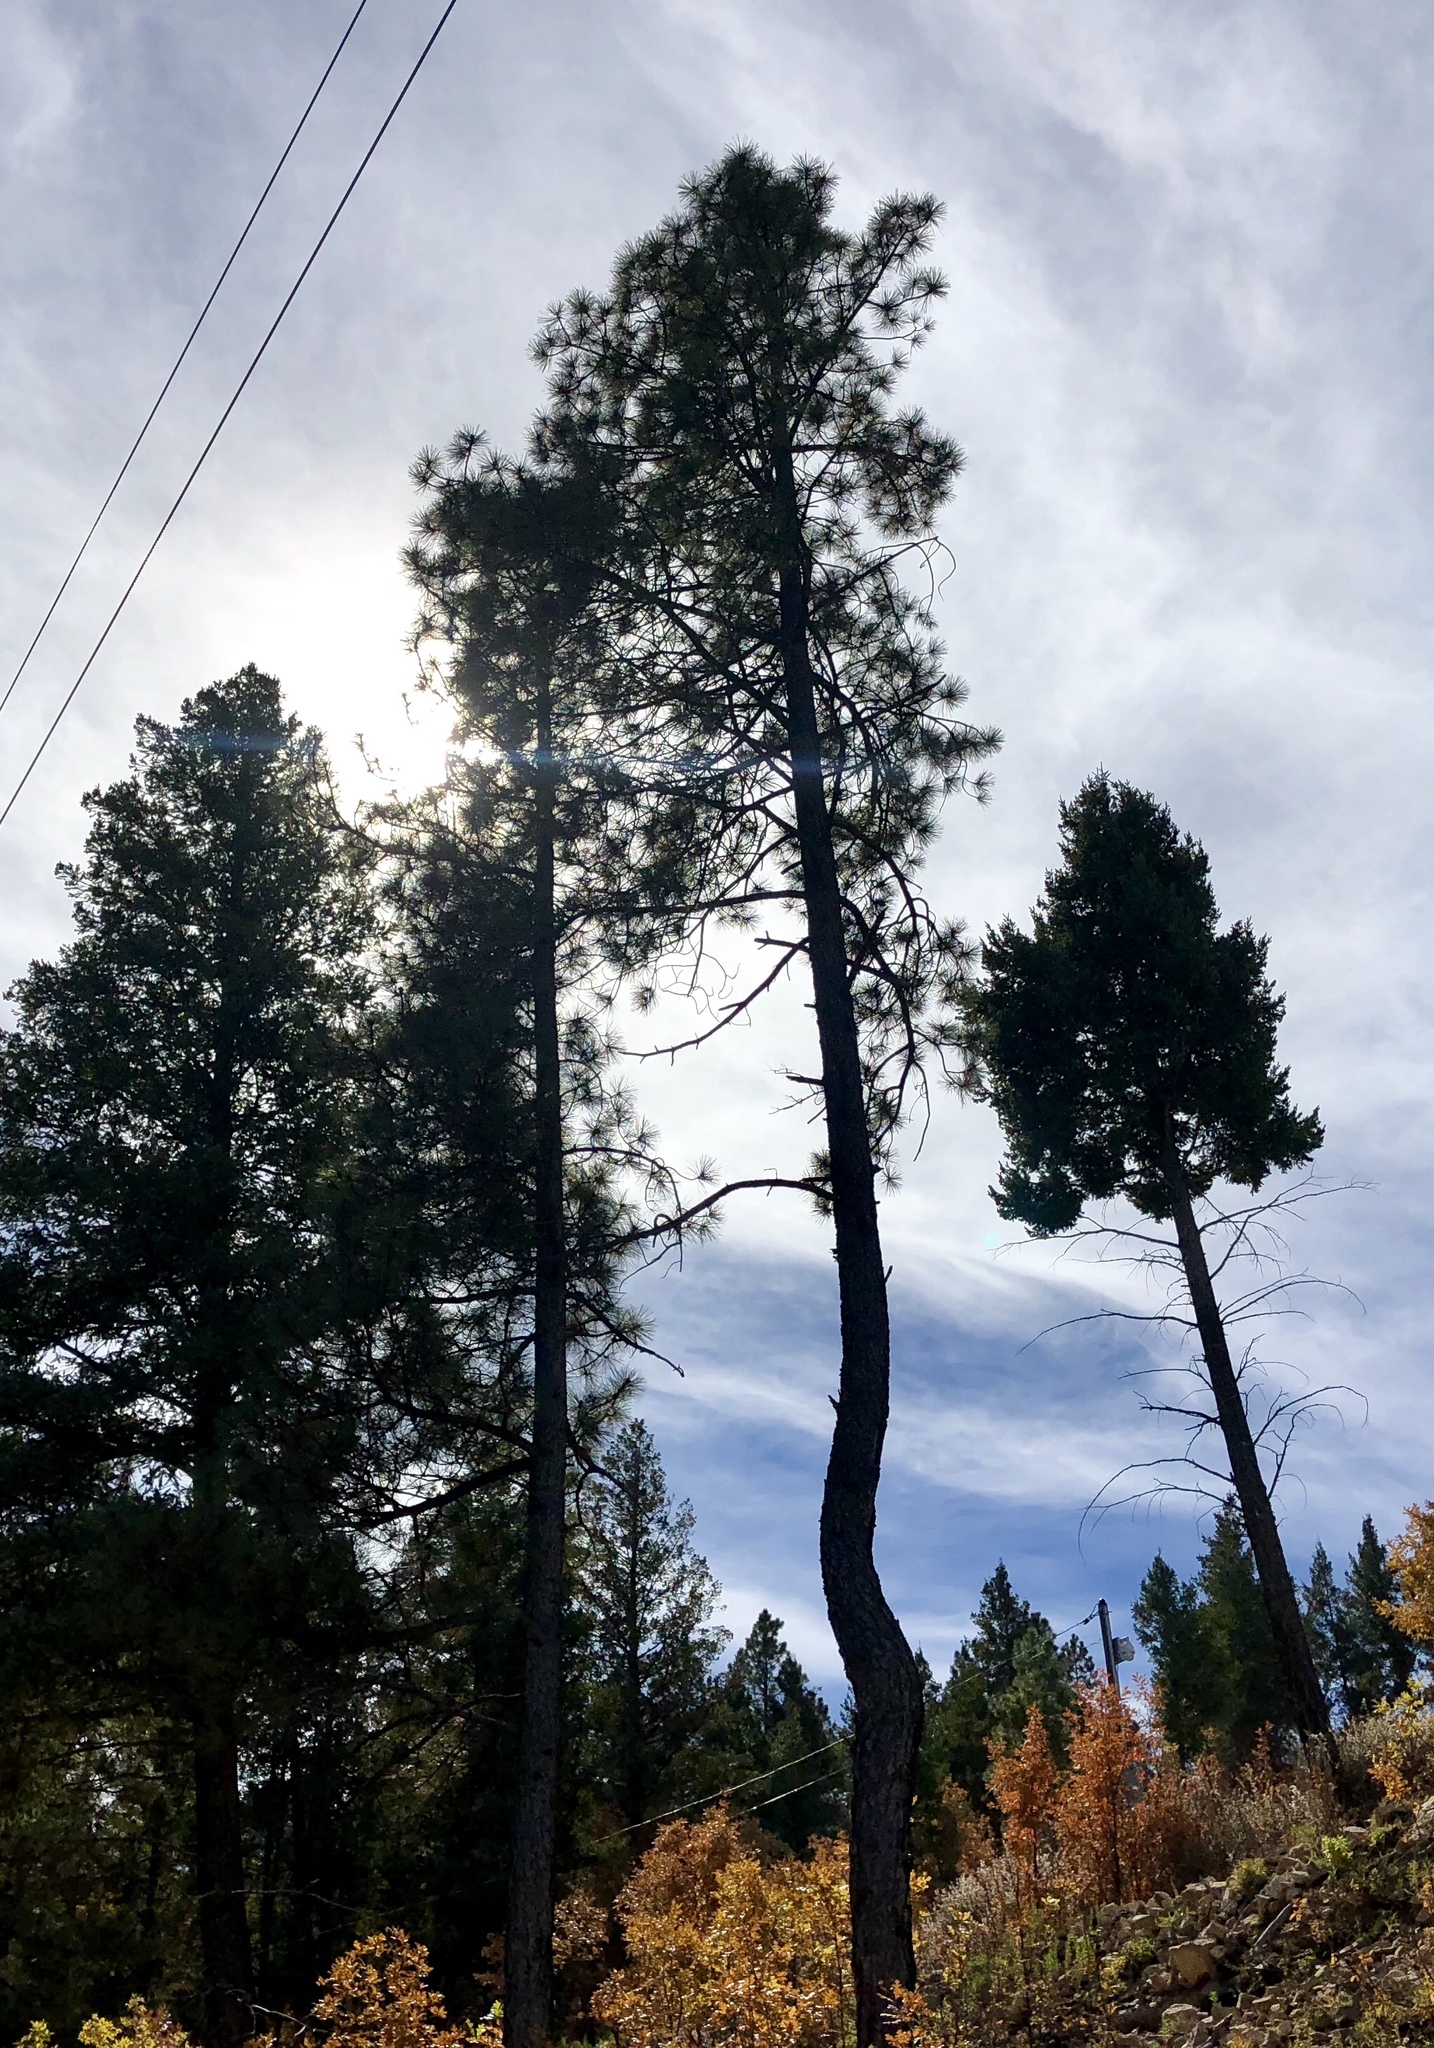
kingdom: Plantae
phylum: Tracheophyta
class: Pinopsida
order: Pinales
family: Pinaceae
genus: Pinus
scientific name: Pinus ponderosa
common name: Western yellow-pine
